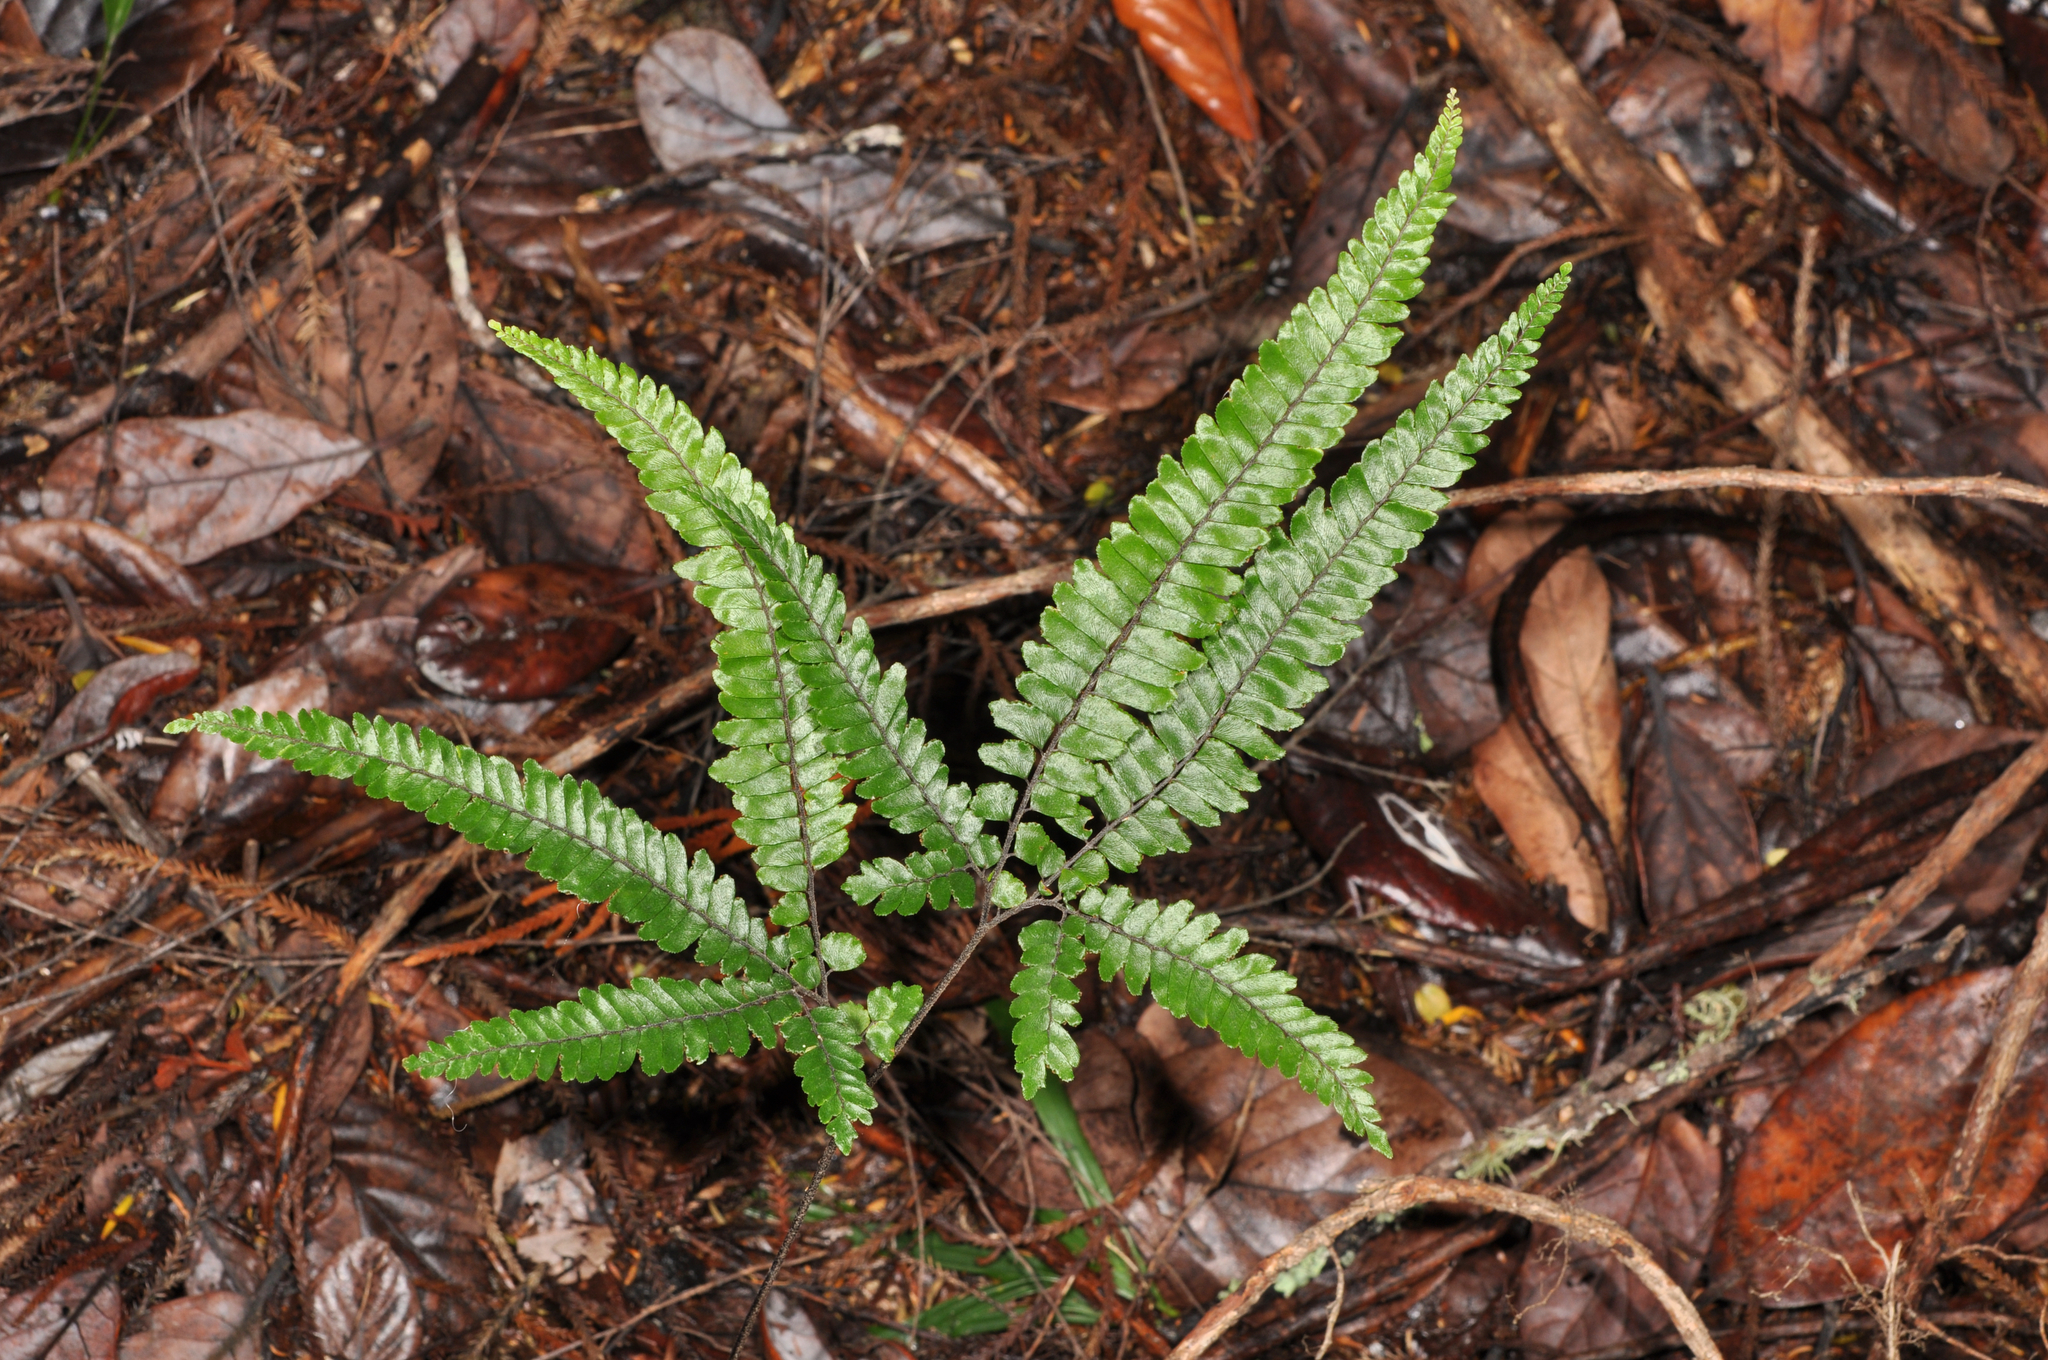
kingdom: Plantae
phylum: Tracheophyta
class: Polypodiopsida
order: Polypodiales
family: Pteridaceae
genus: Adiantum
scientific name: Adiantum hispidulum
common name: Rough maidenhair
